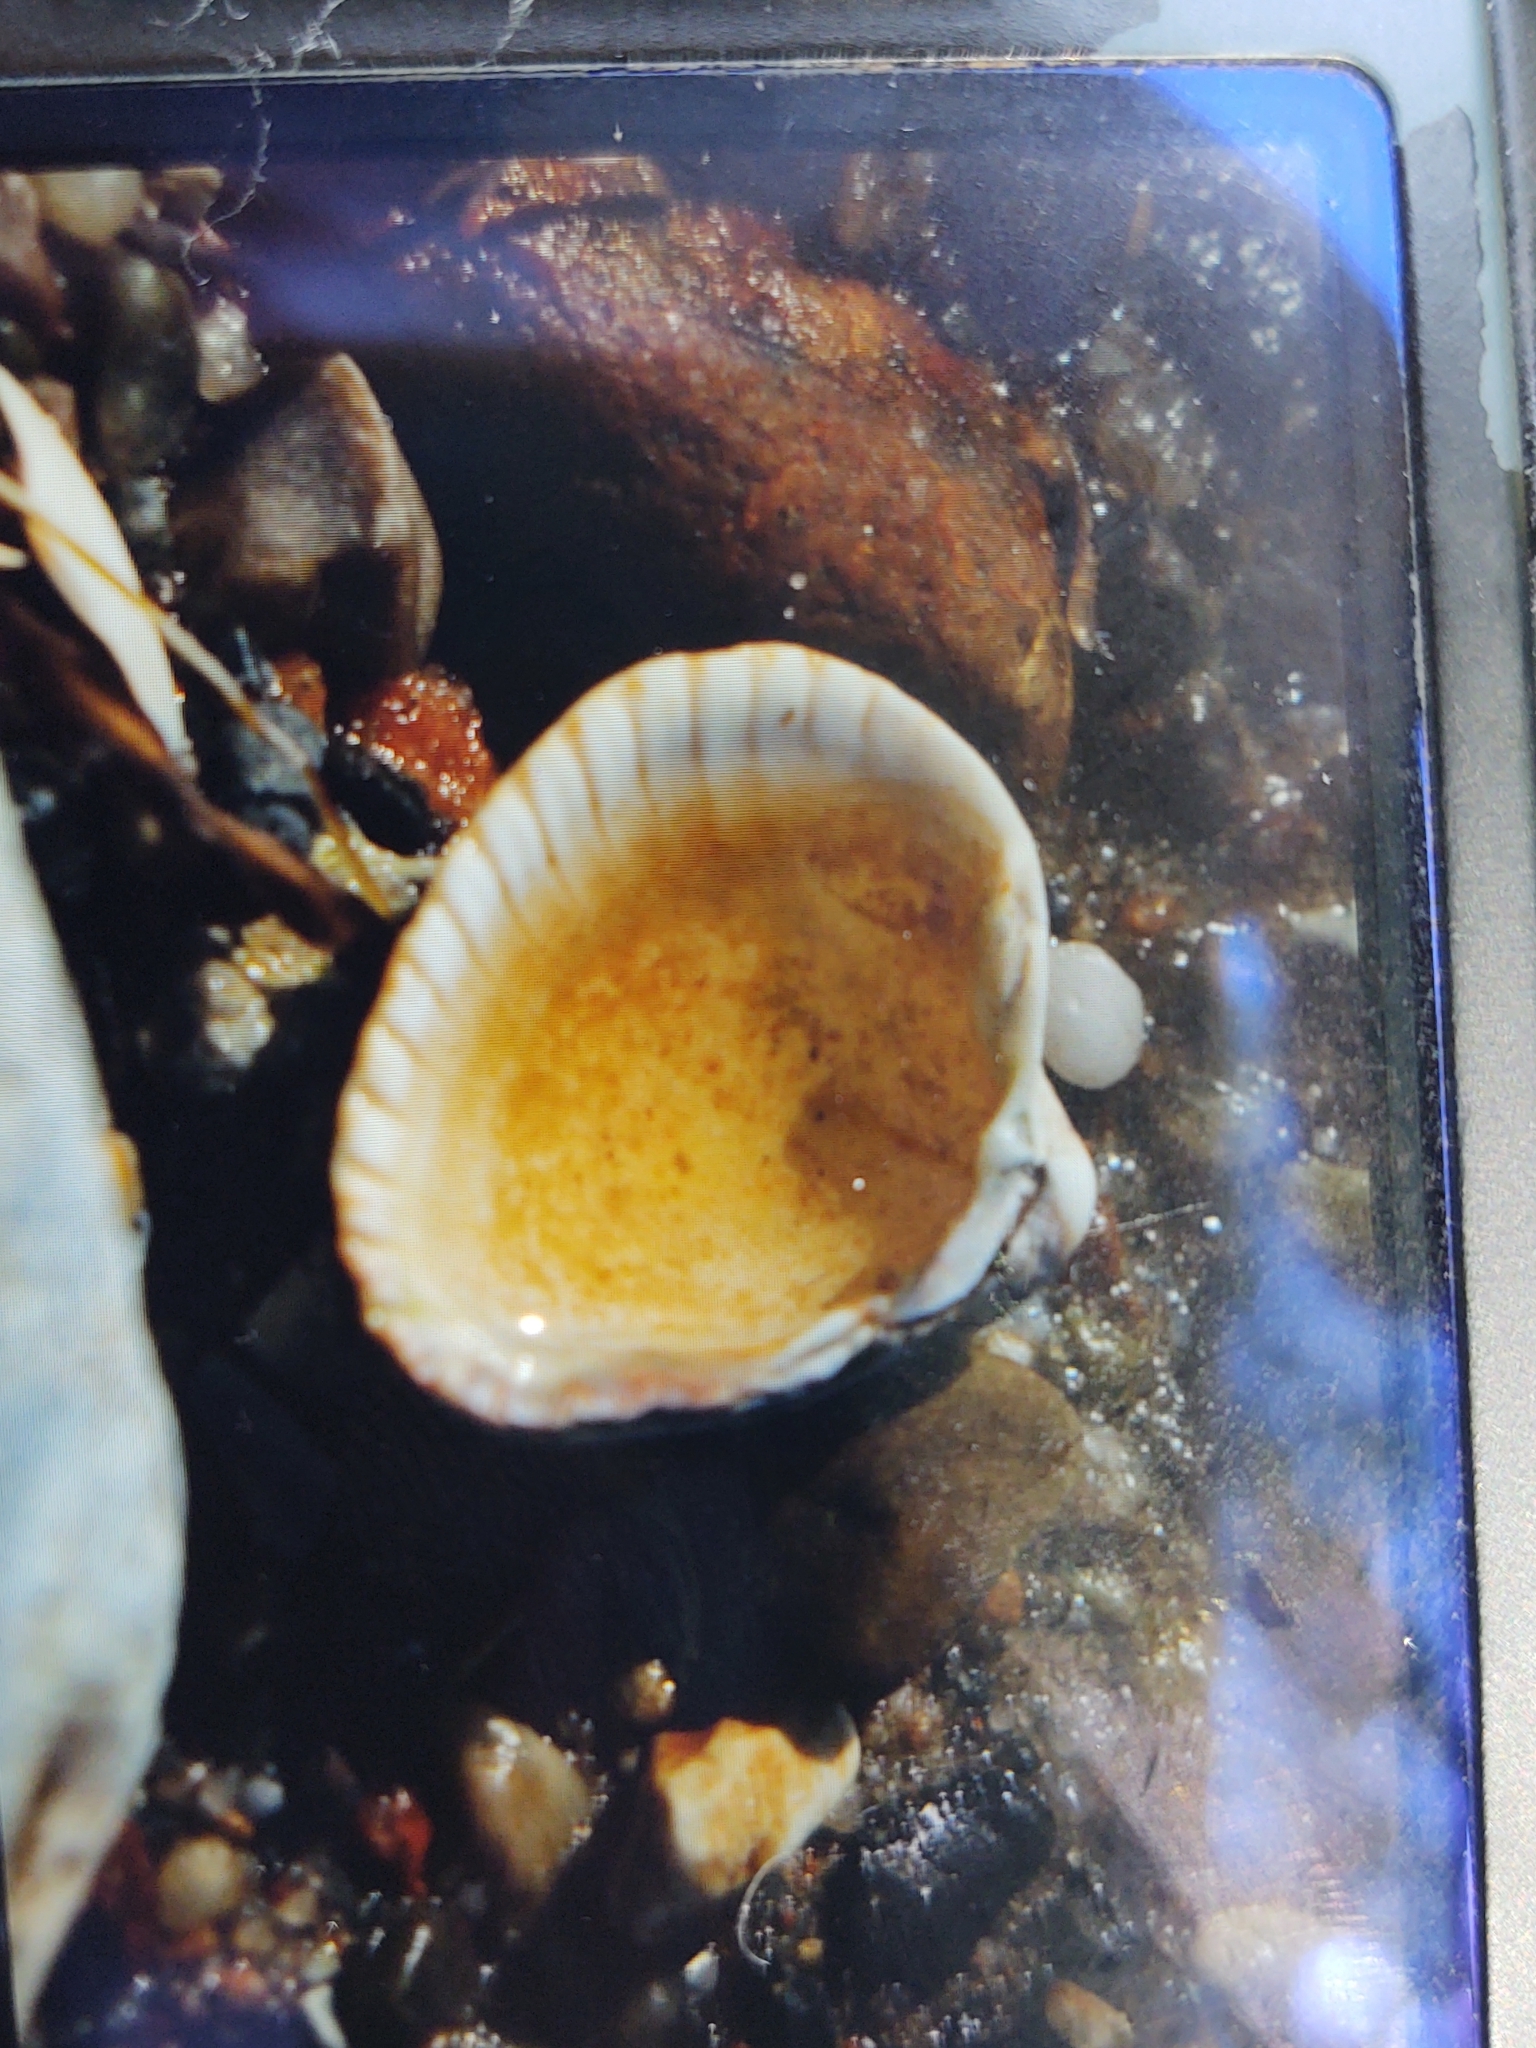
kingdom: Animalia
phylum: Mollusca
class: Bivalvia
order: Cardiida
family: Cardiidae
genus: Cerastoderma
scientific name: Cerastoderma edule
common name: Common cockle
